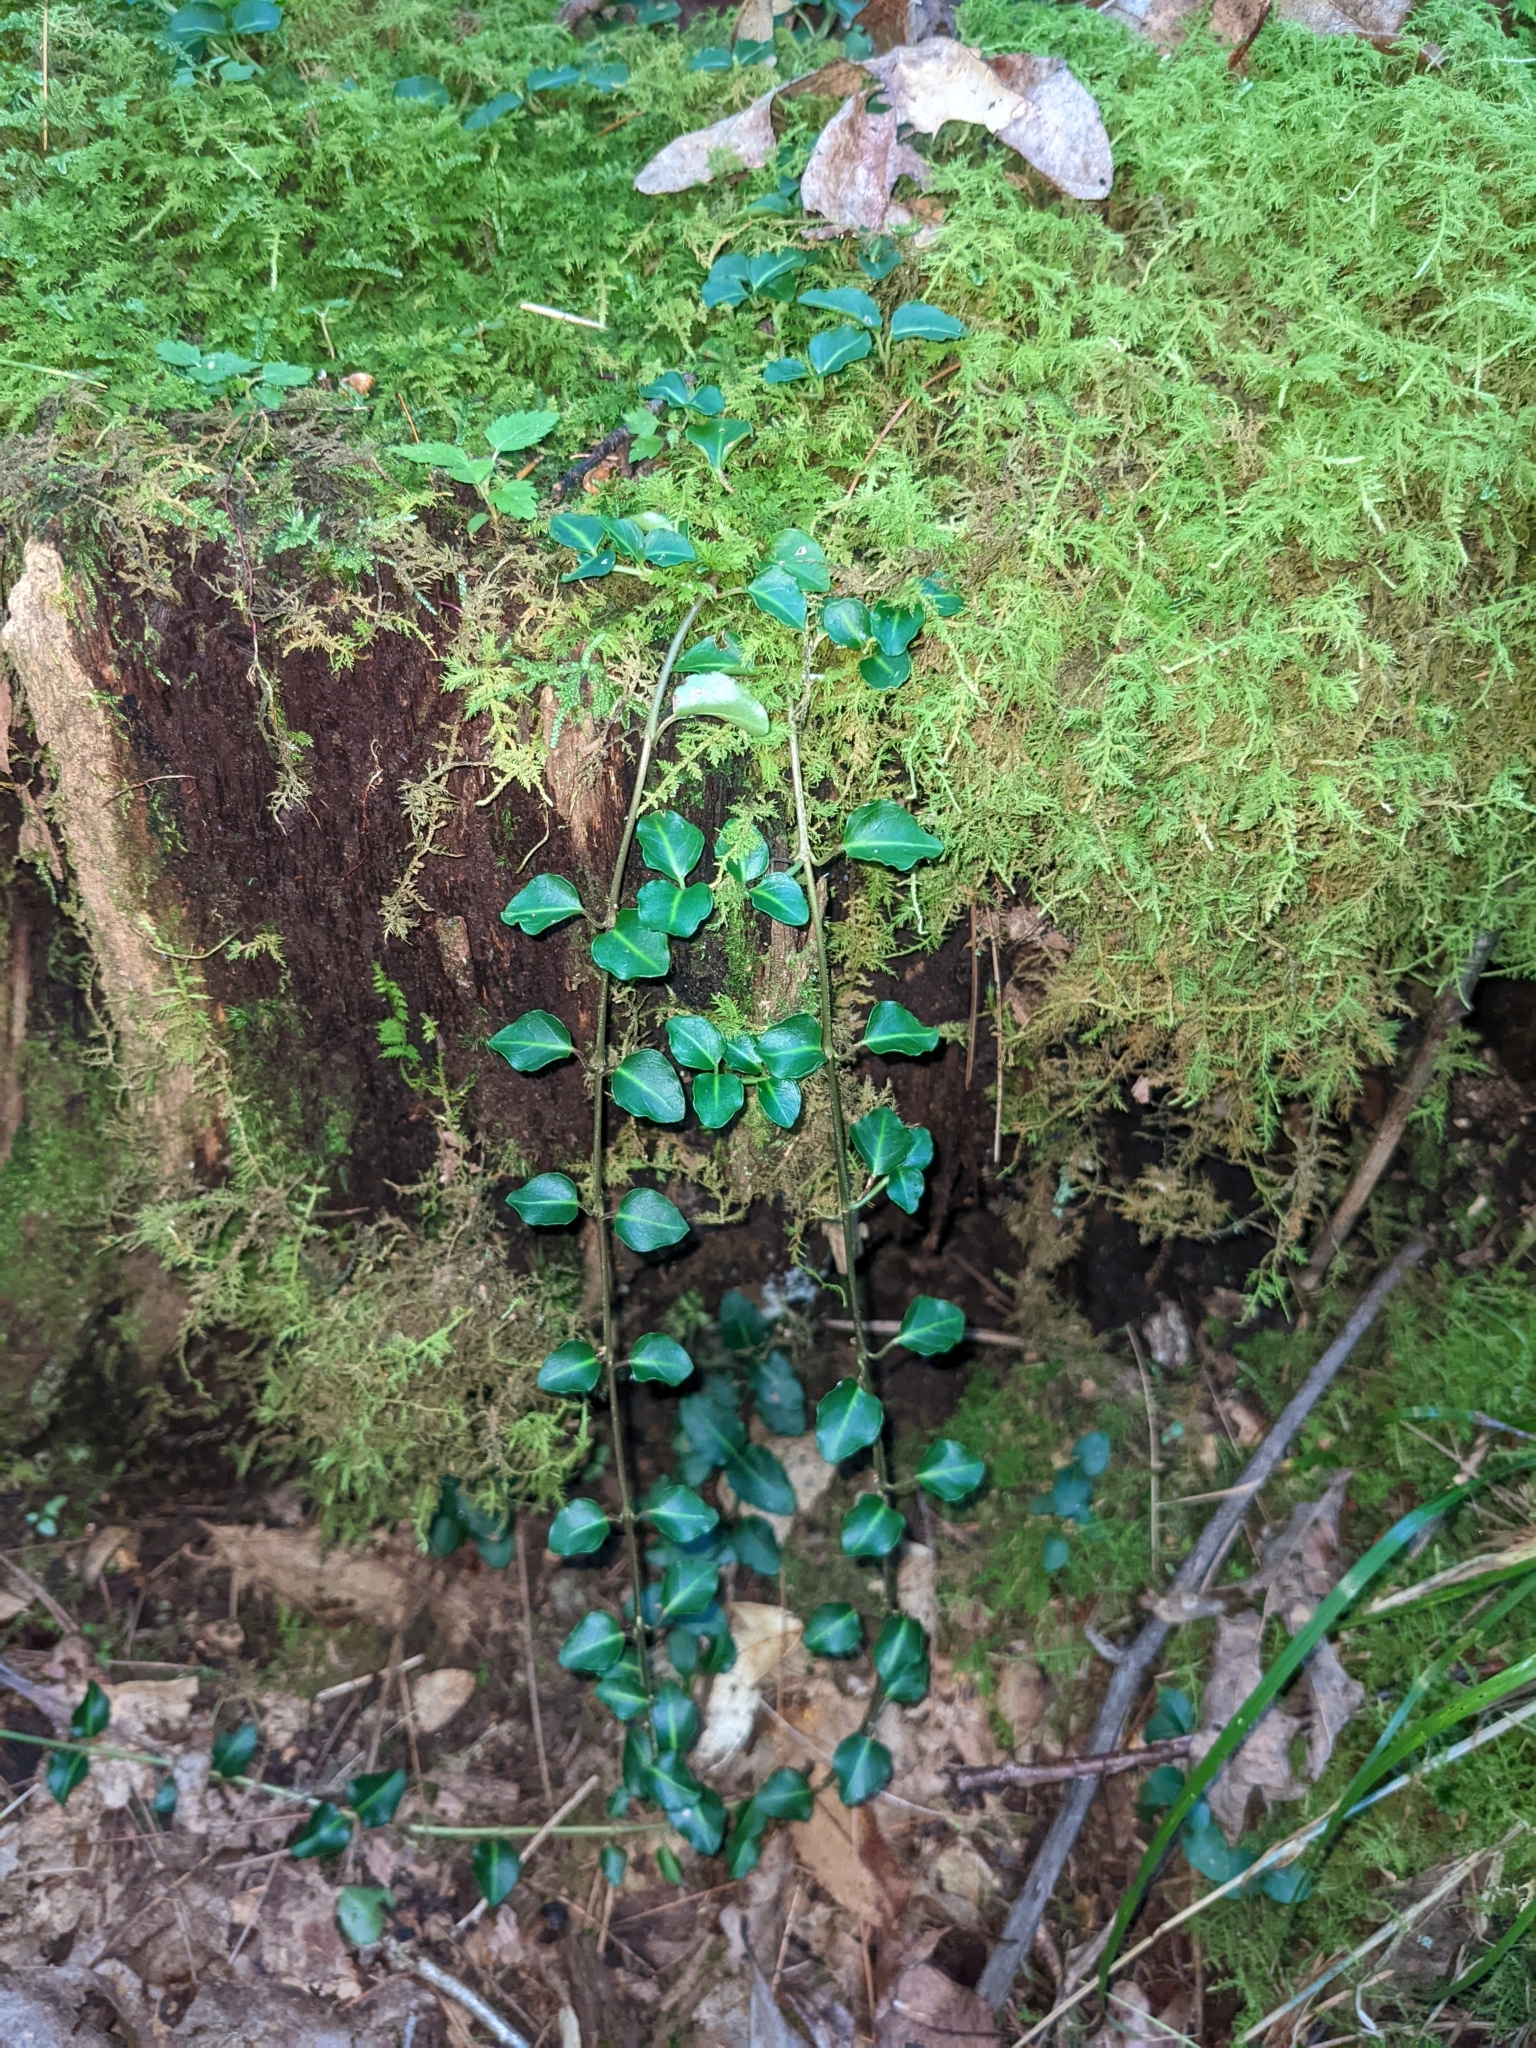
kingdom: Plantae
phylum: Tracheophyta
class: Magnoliopsida
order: Gentianales
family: Rubiaceae
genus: Mitchella
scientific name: Mitchella repens
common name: Partridge-berry
